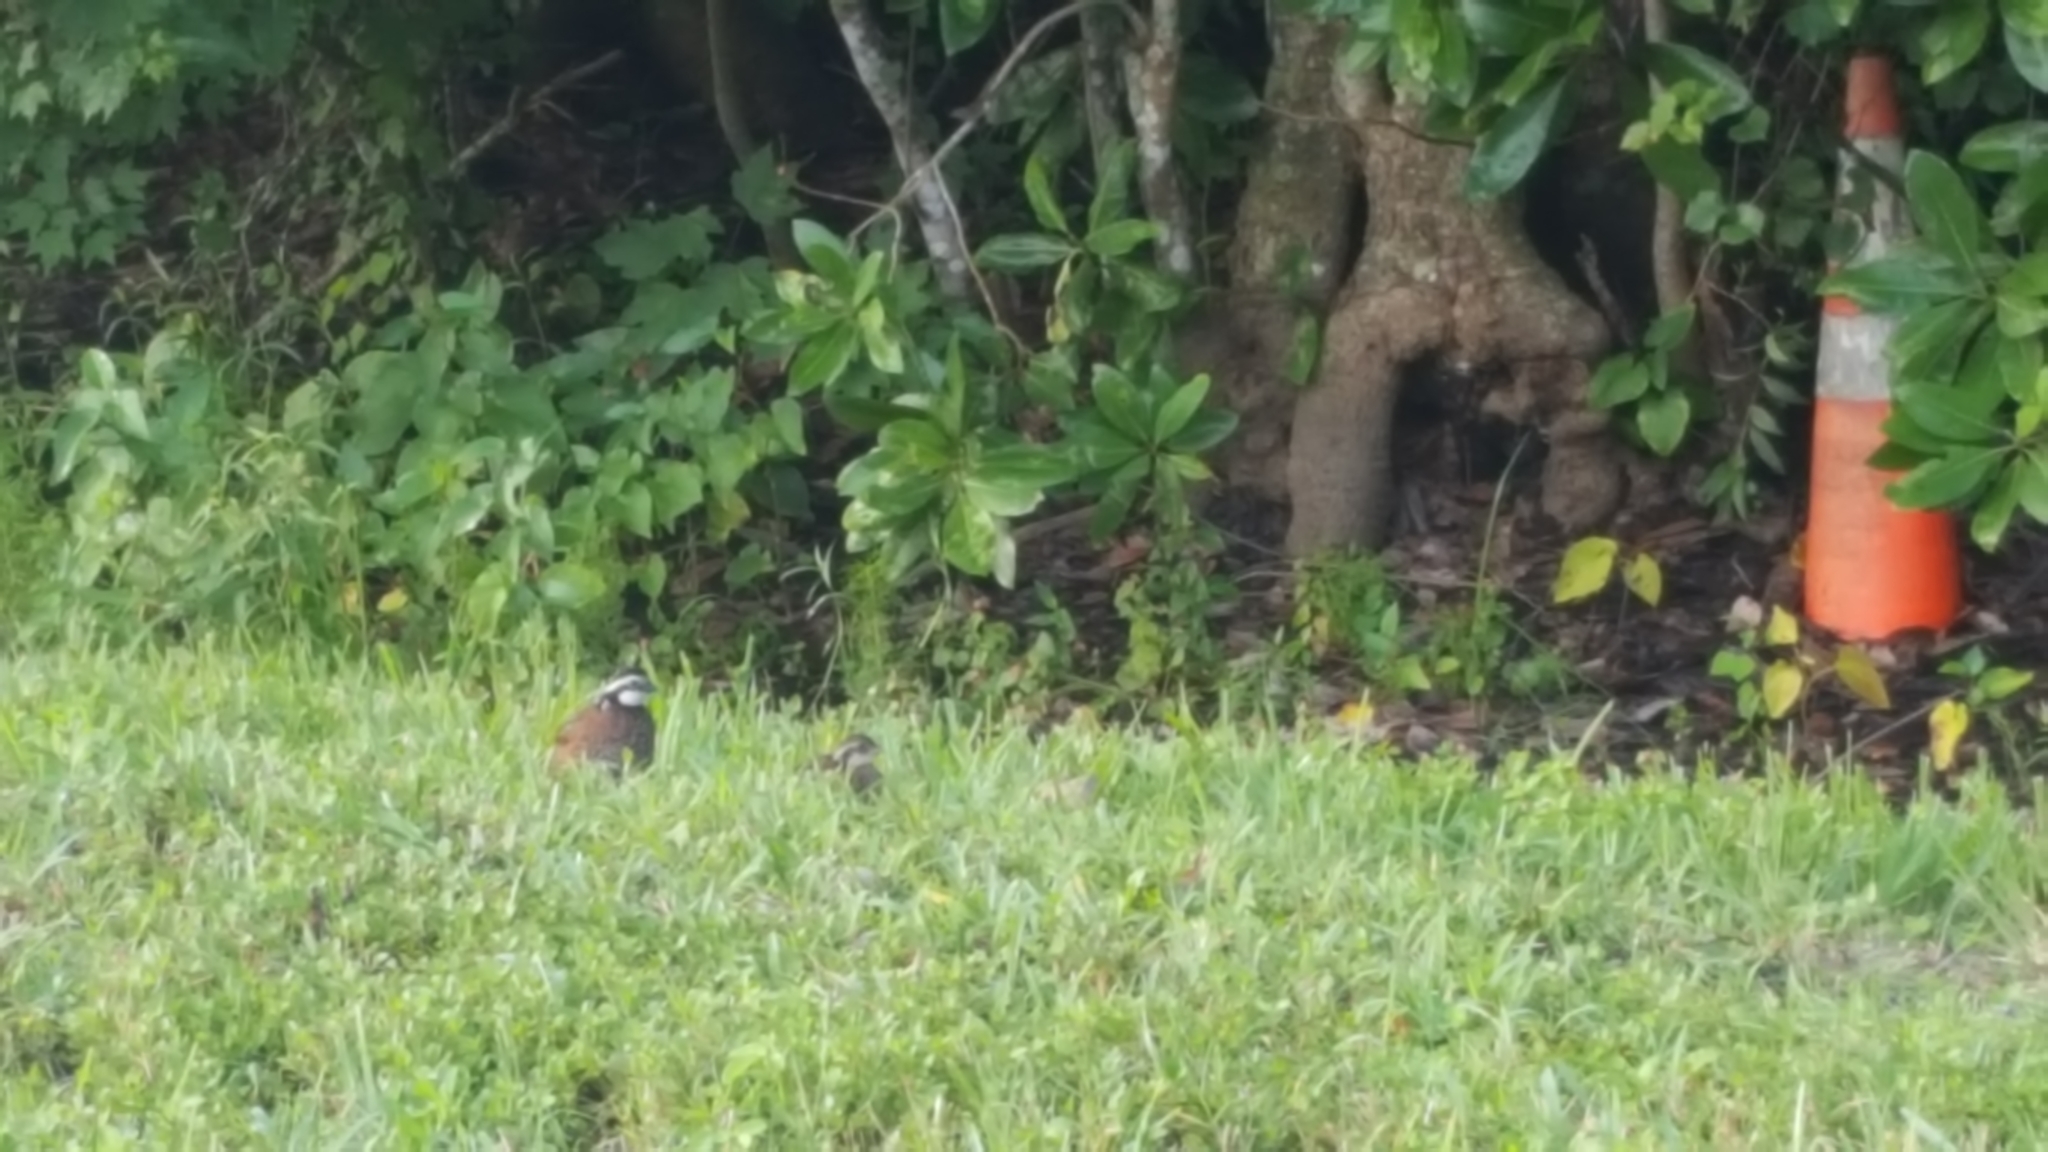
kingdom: Animalia
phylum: Chordata
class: Aves
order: Galliformes
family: Odontophoridae
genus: Colinus
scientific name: Colinus virginianus
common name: Northern bobwhite
